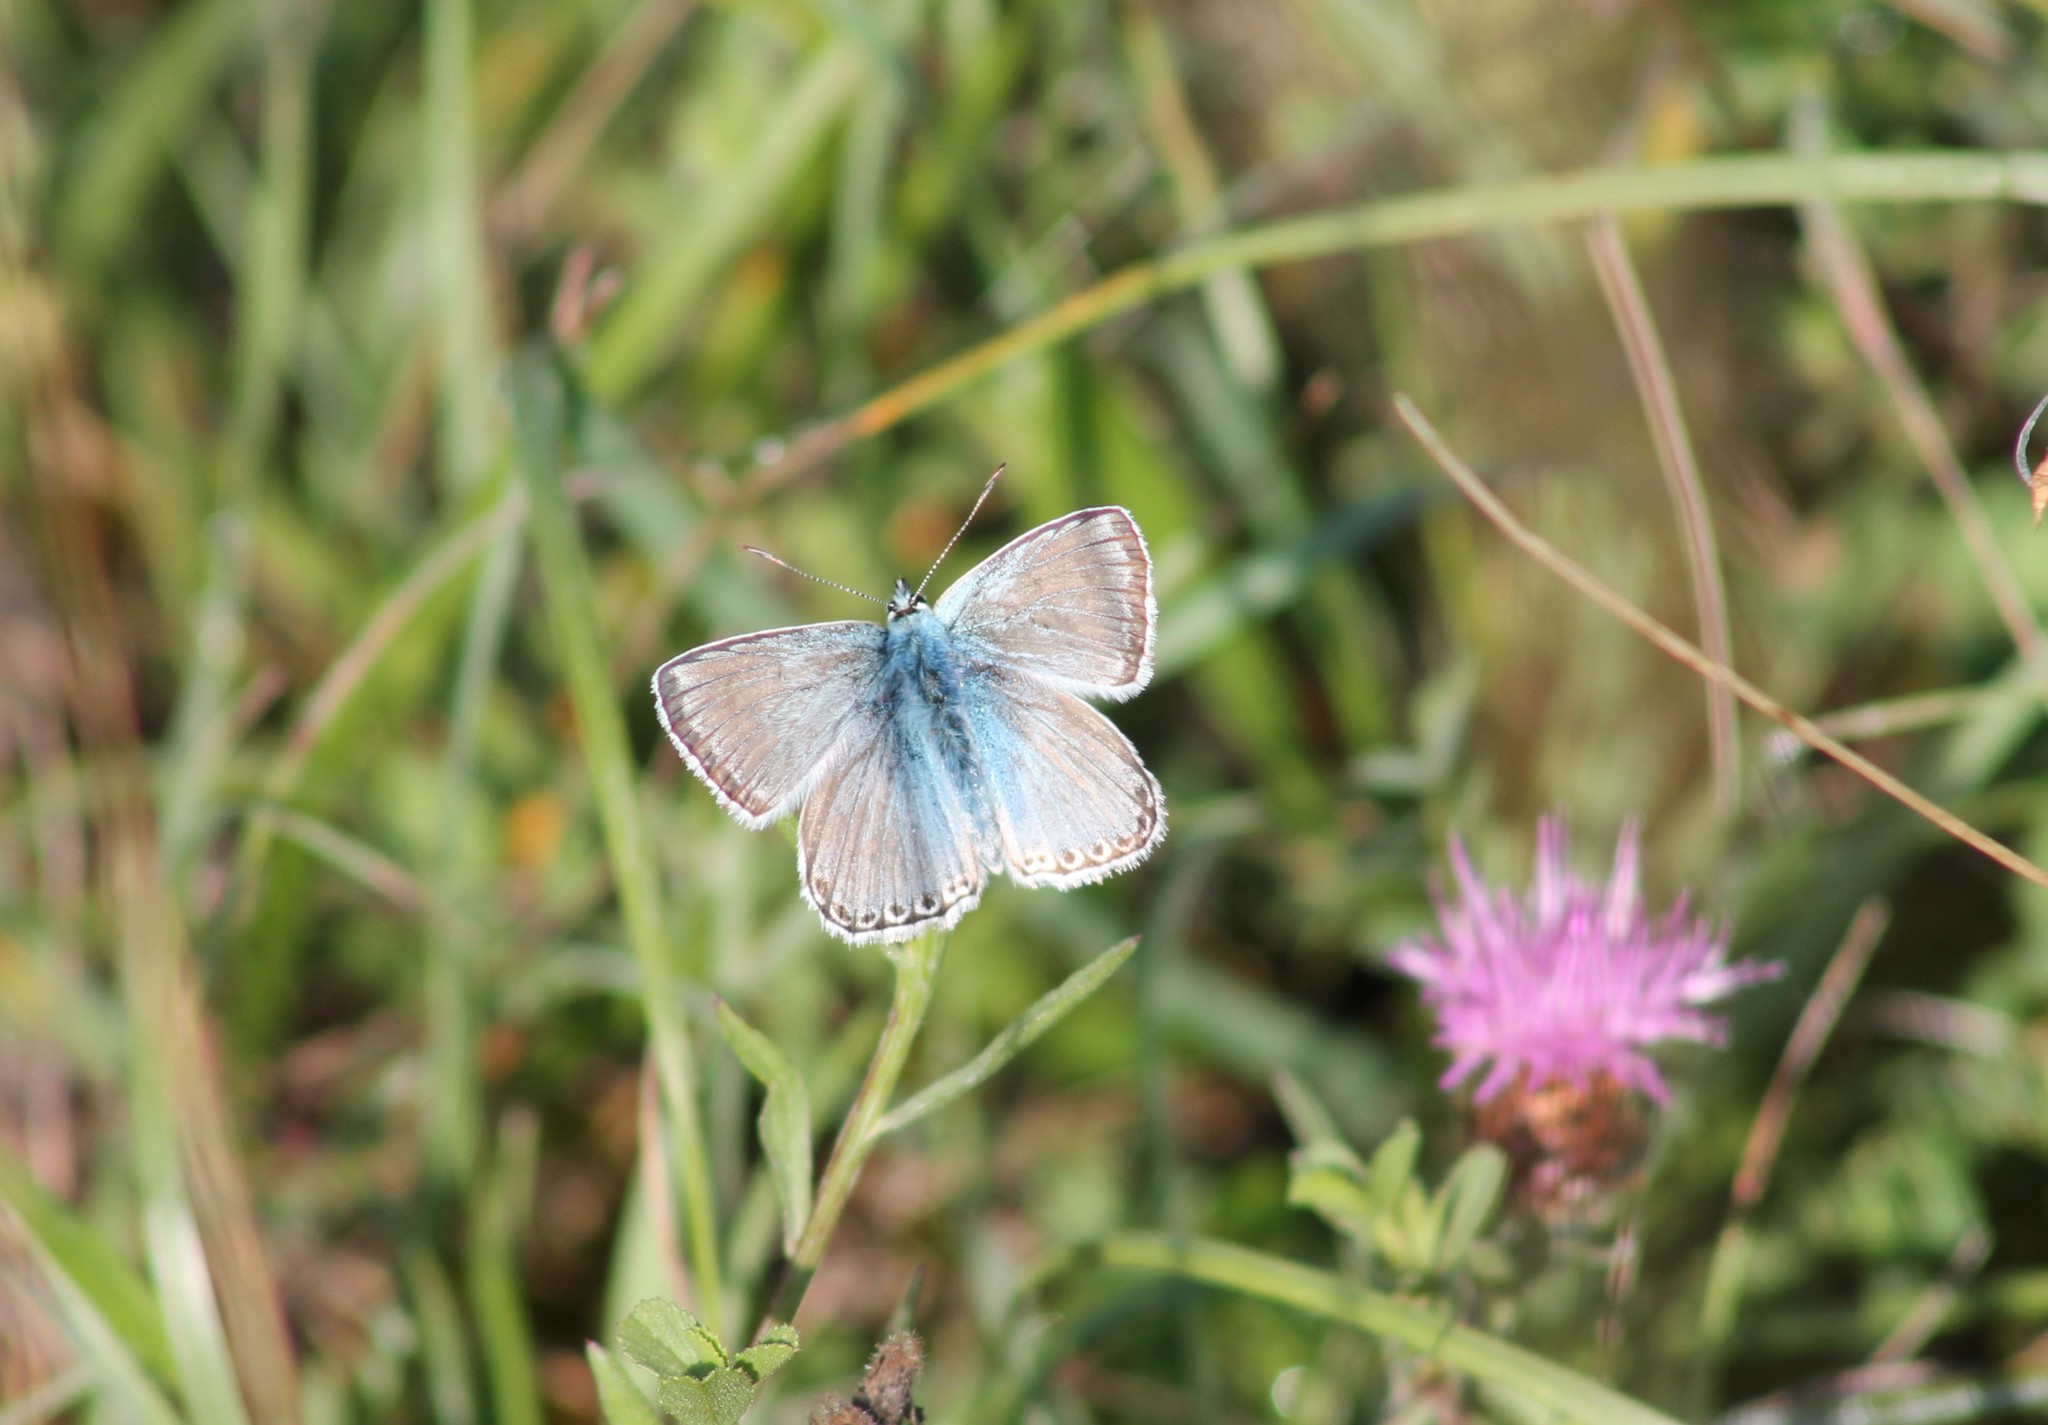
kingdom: Animalia
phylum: Arthropoda
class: Insecta
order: Lepidoptera
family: Lycaenidae
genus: Lysandra
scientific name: Lysandra coridon
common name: Chalkhill blue
